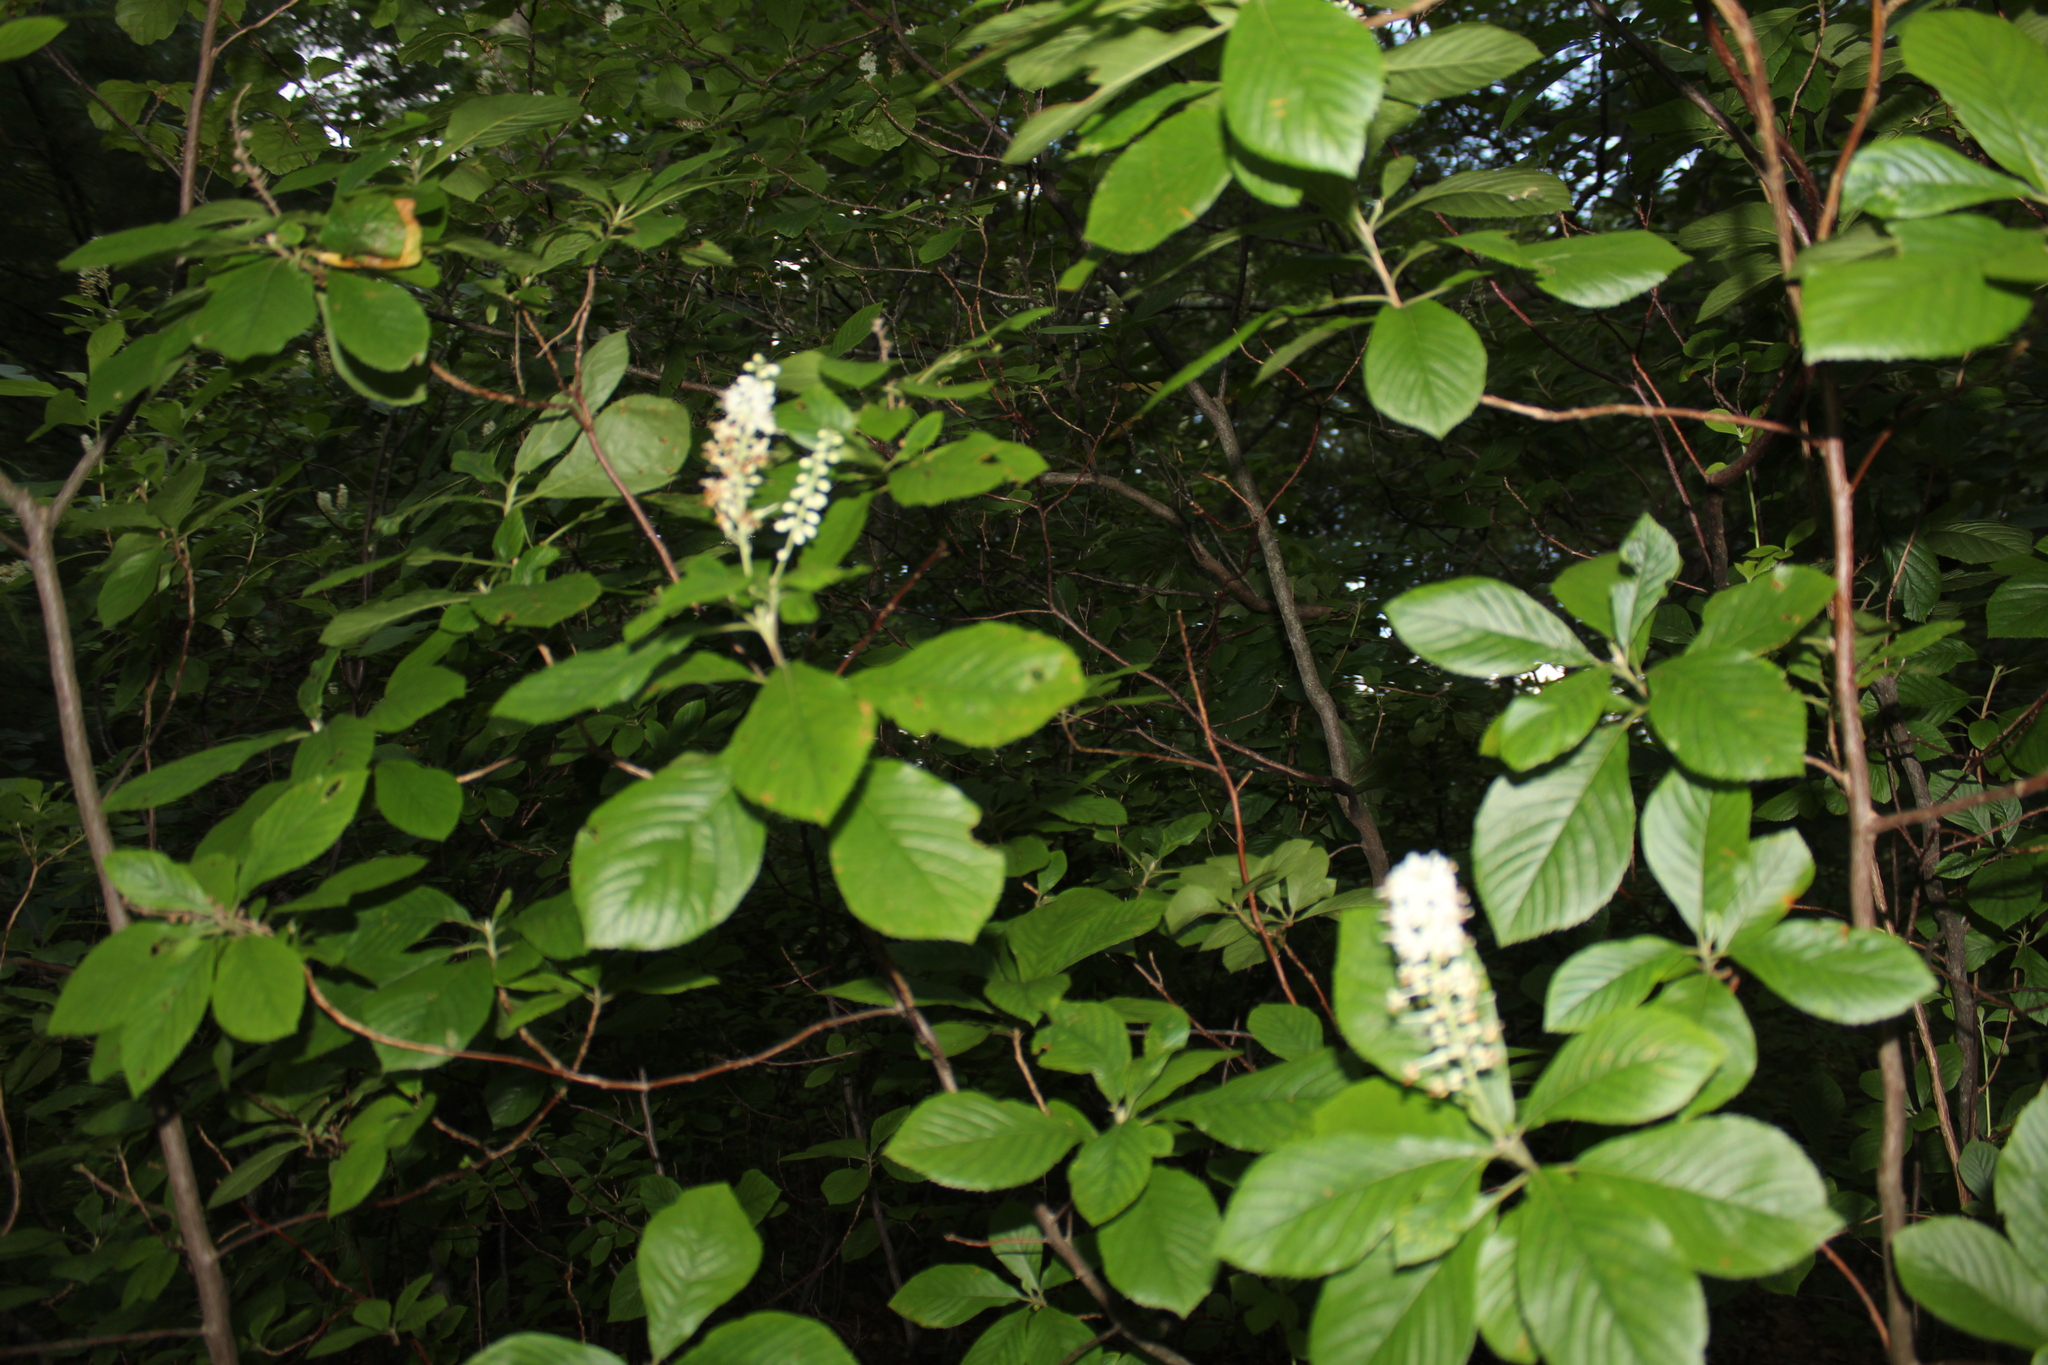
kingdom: Plantae
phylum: Tracheophyta
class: Magnoliopsida
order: Ericales
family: Clethraceae
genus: Clethra
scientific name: Clethra alnifolia
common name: Sweet pepperbush
